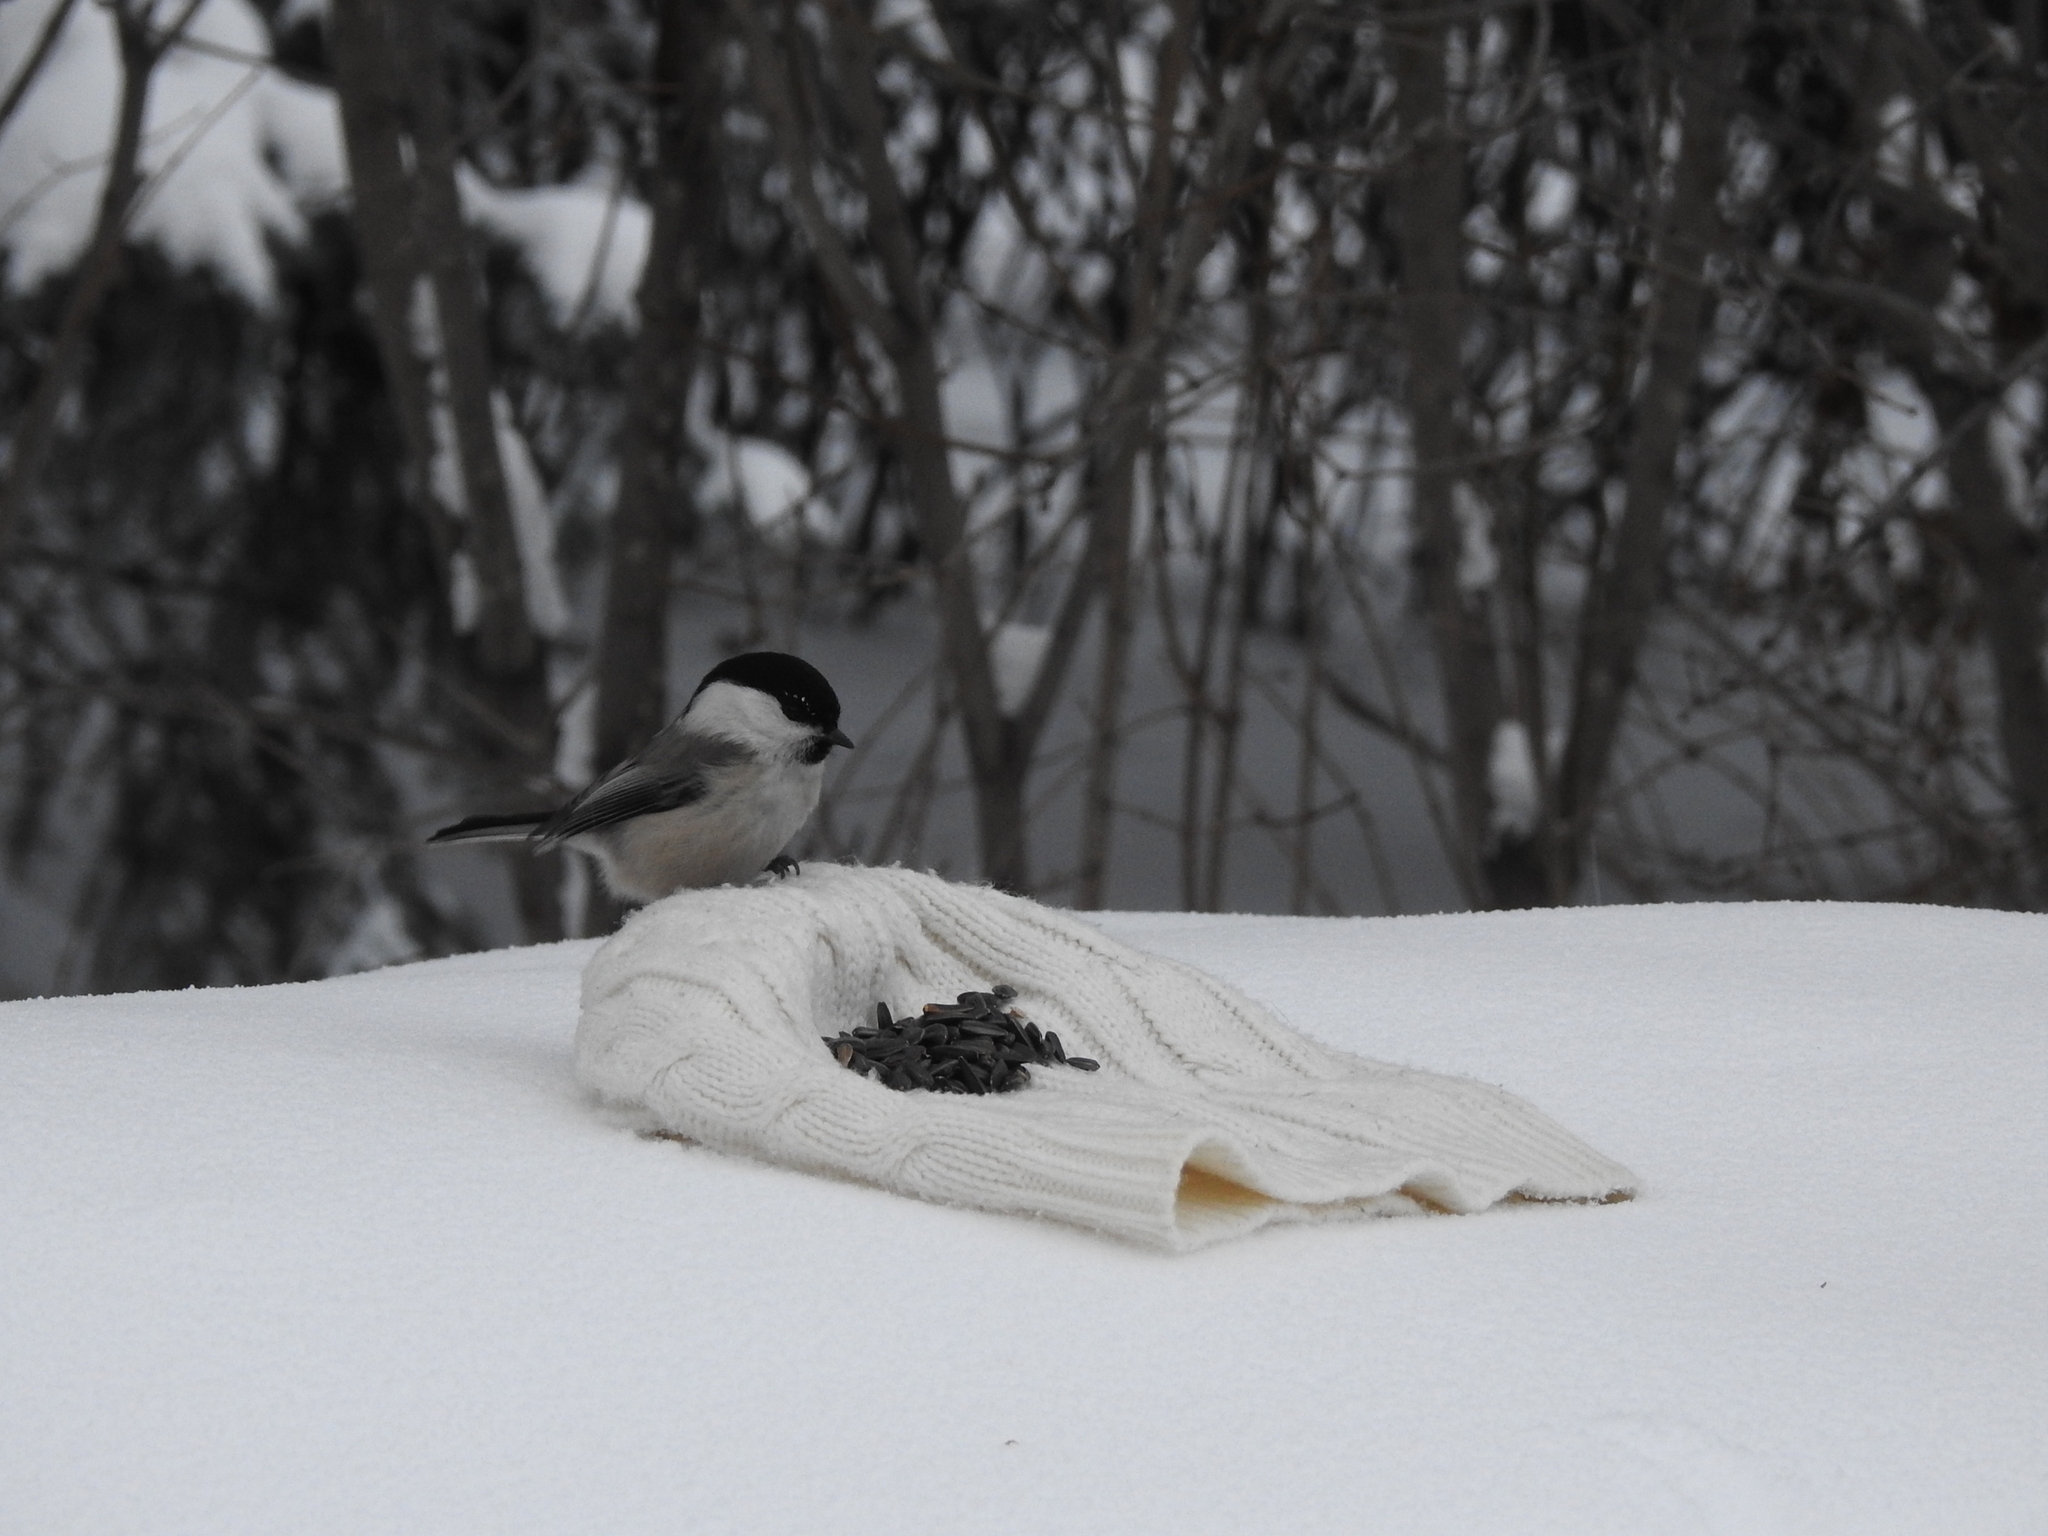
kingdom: Animalia
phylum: Chordata
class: Aves
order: Passeriformes
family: Paridae
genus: Poecile
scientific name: Poecile montanus
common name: Willow tit
